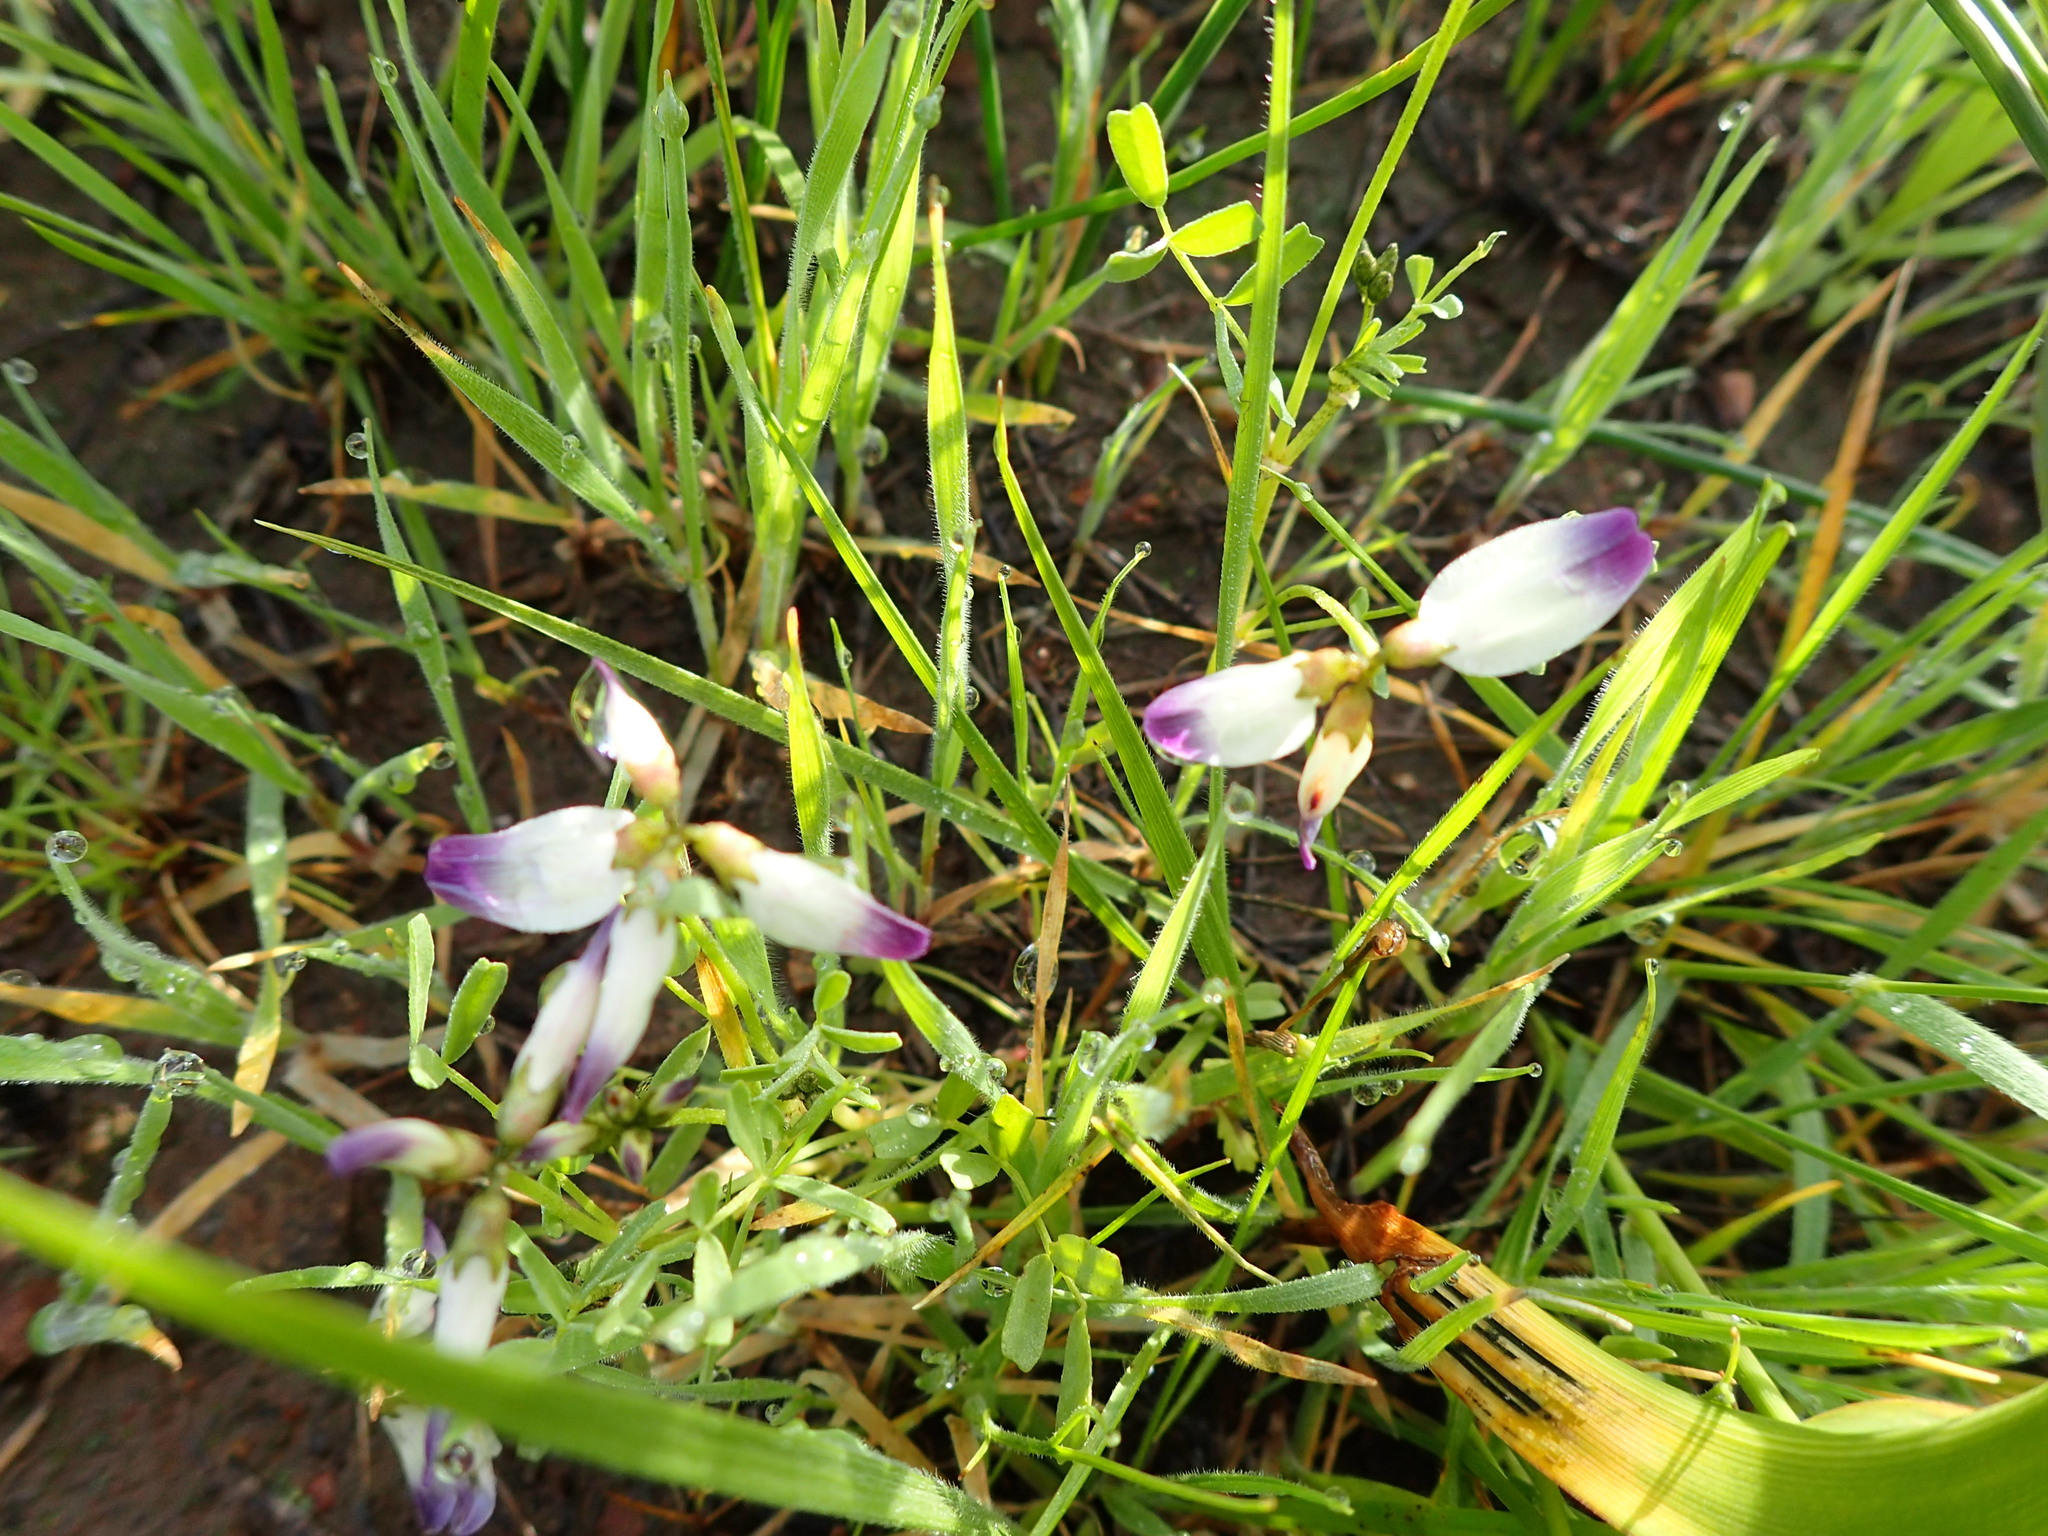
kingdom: Plantae
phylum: Tracheophyta
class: Magnoliopsida
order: Fabales
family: Fabaceae
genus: Astragalus
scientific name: Astragalus claranus
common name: Clara hunt's milkvetch
